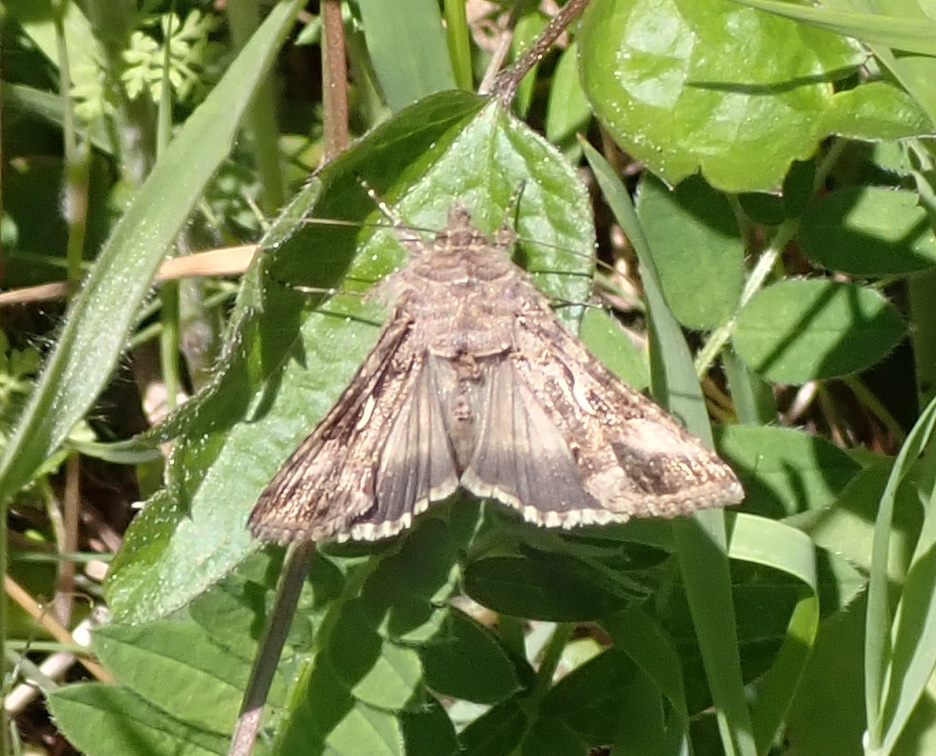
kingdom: Animalia
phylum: Arthropoda
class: Insecta
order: Lepidoptera
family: Noctuidae
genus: Autographa
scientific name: Autographa gamma
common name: Silver y
